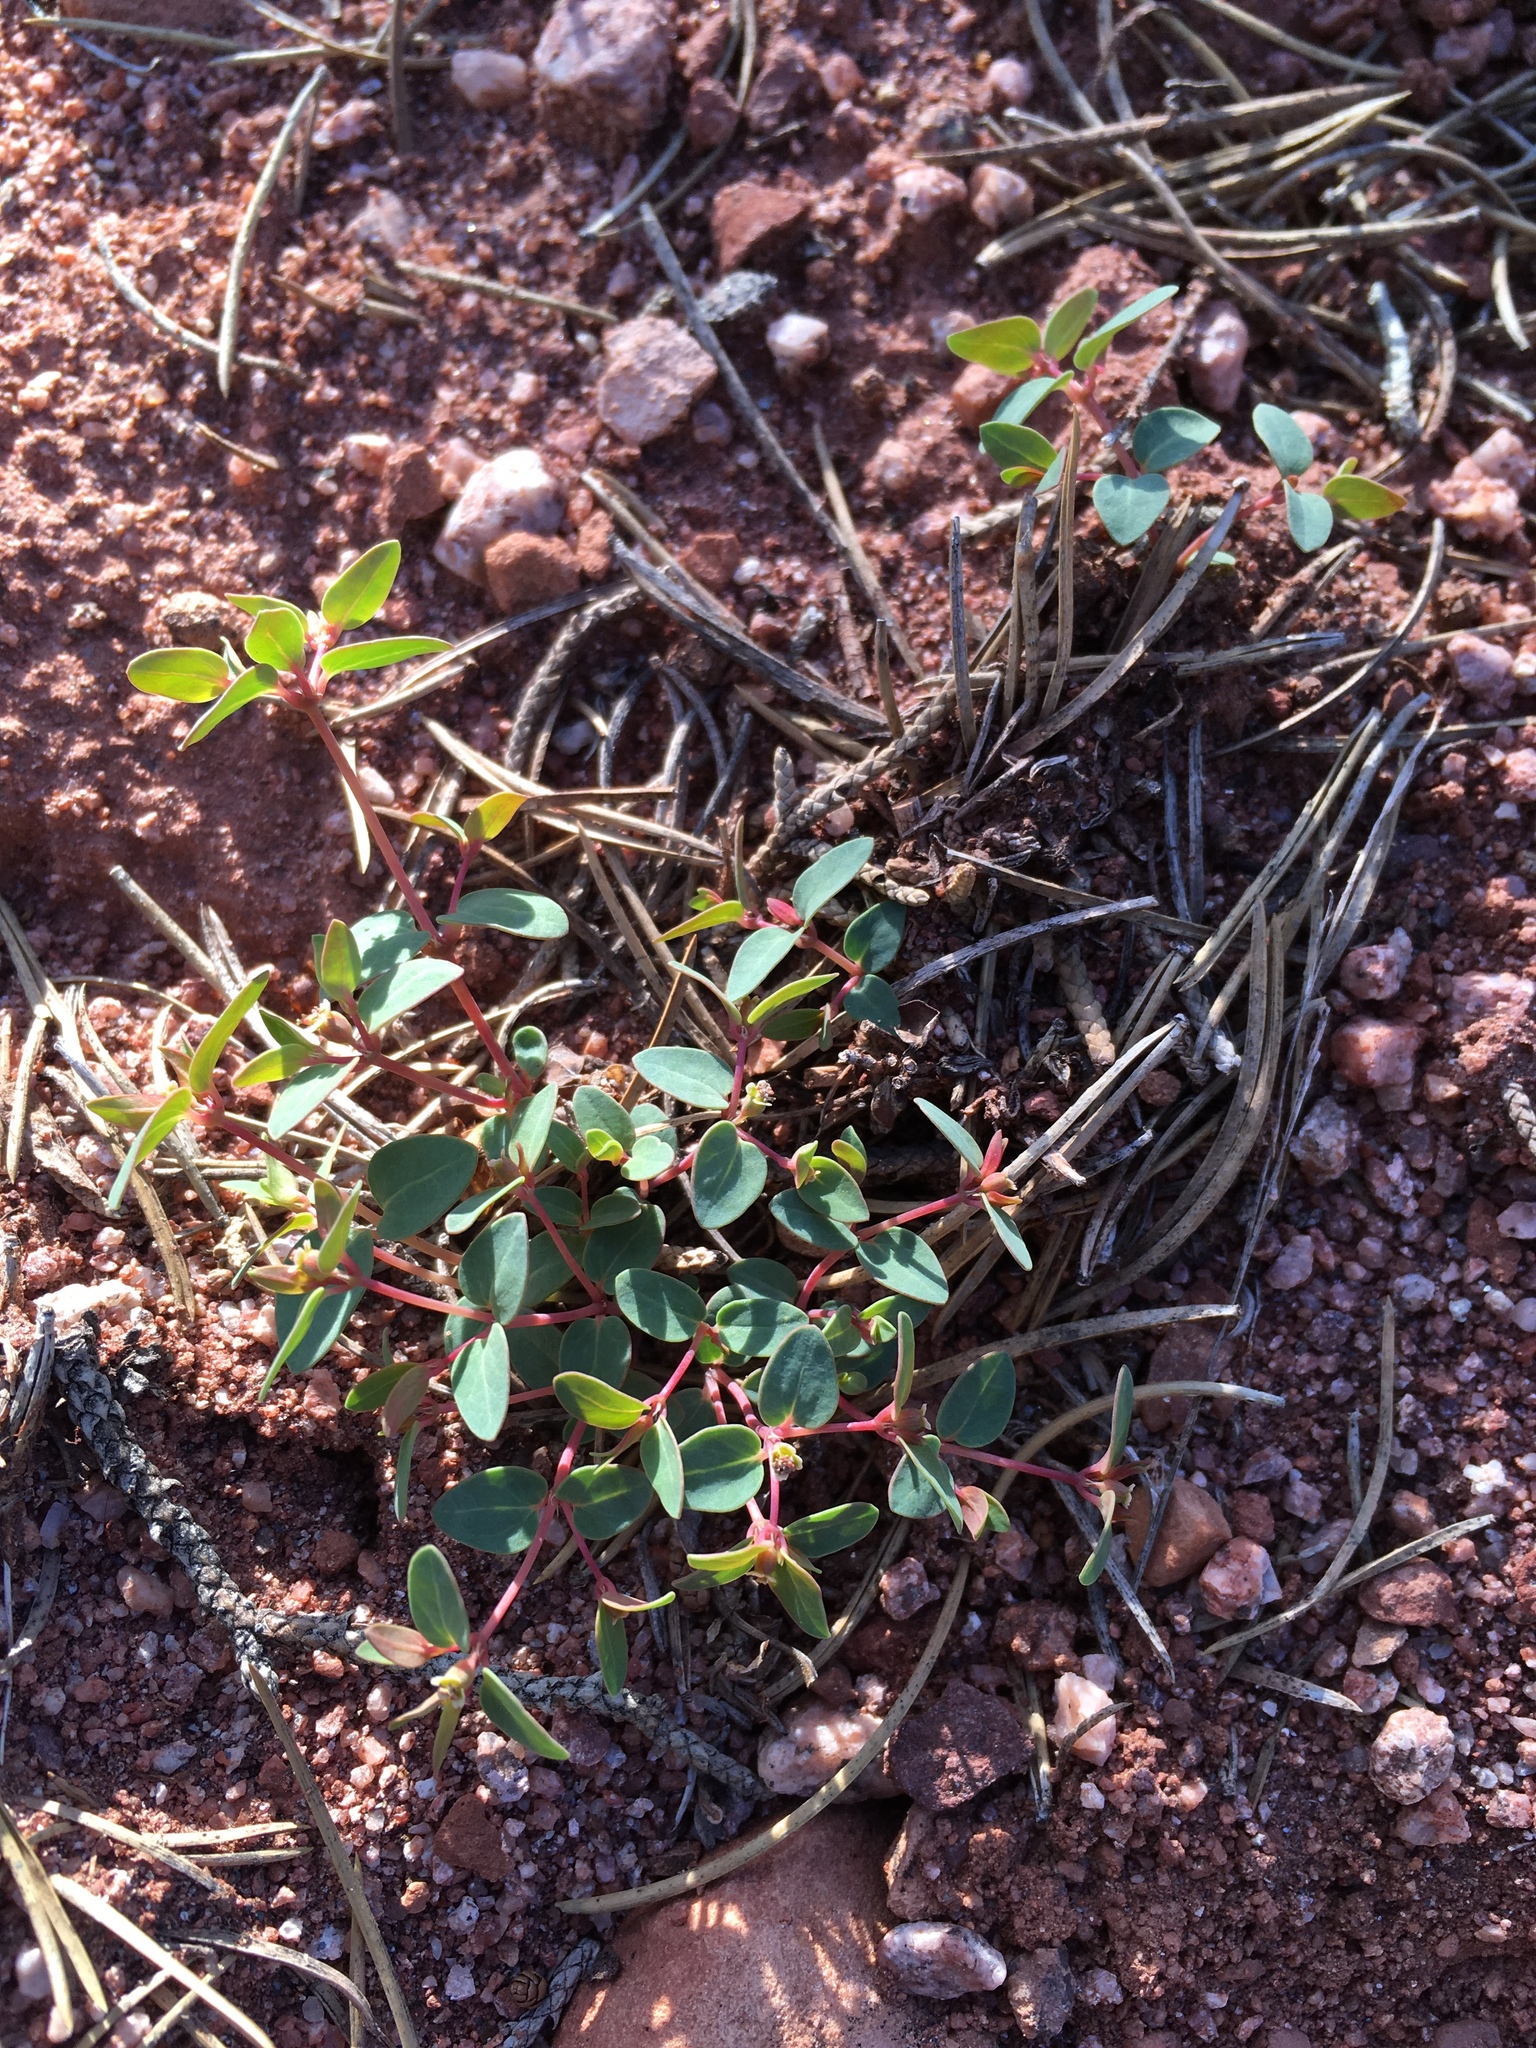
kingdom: Plantae
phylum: Tracheophyta
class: Magnoliopsida
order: Malpighiales
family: Euphorbiaceae
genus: Euphorbia
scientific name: Euphorbia fendleri
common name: Fendler's euphorbia
